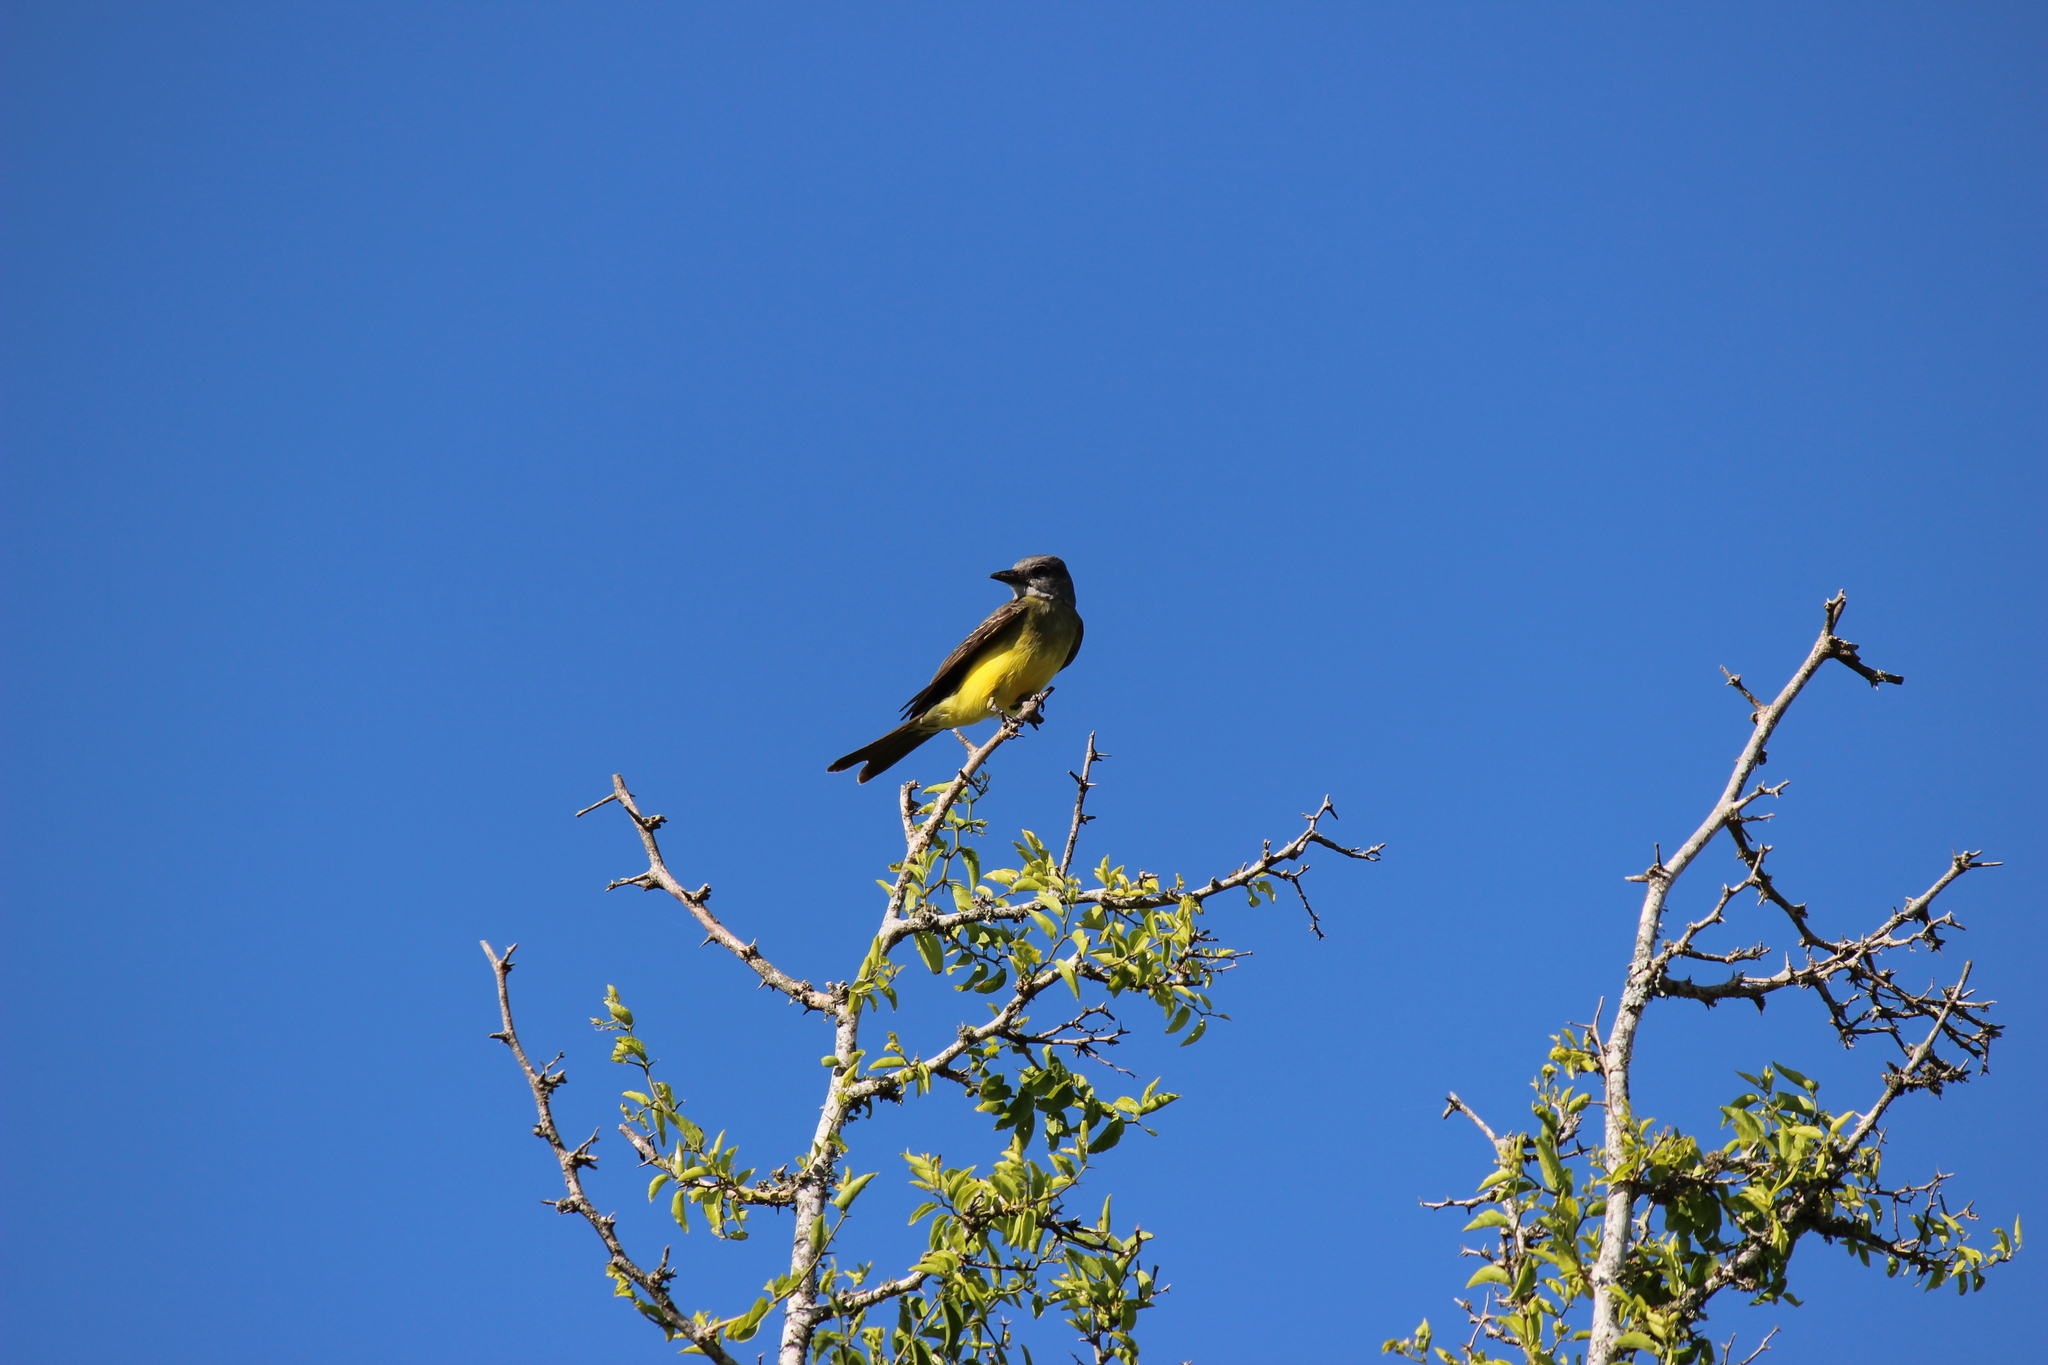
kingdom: Animalia
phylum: Chordata
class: Aves
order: Passeriformes
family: Tyrannidae
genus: Tyrannus
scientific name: Tyrannus melancholicus
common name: Tropical kingbird
